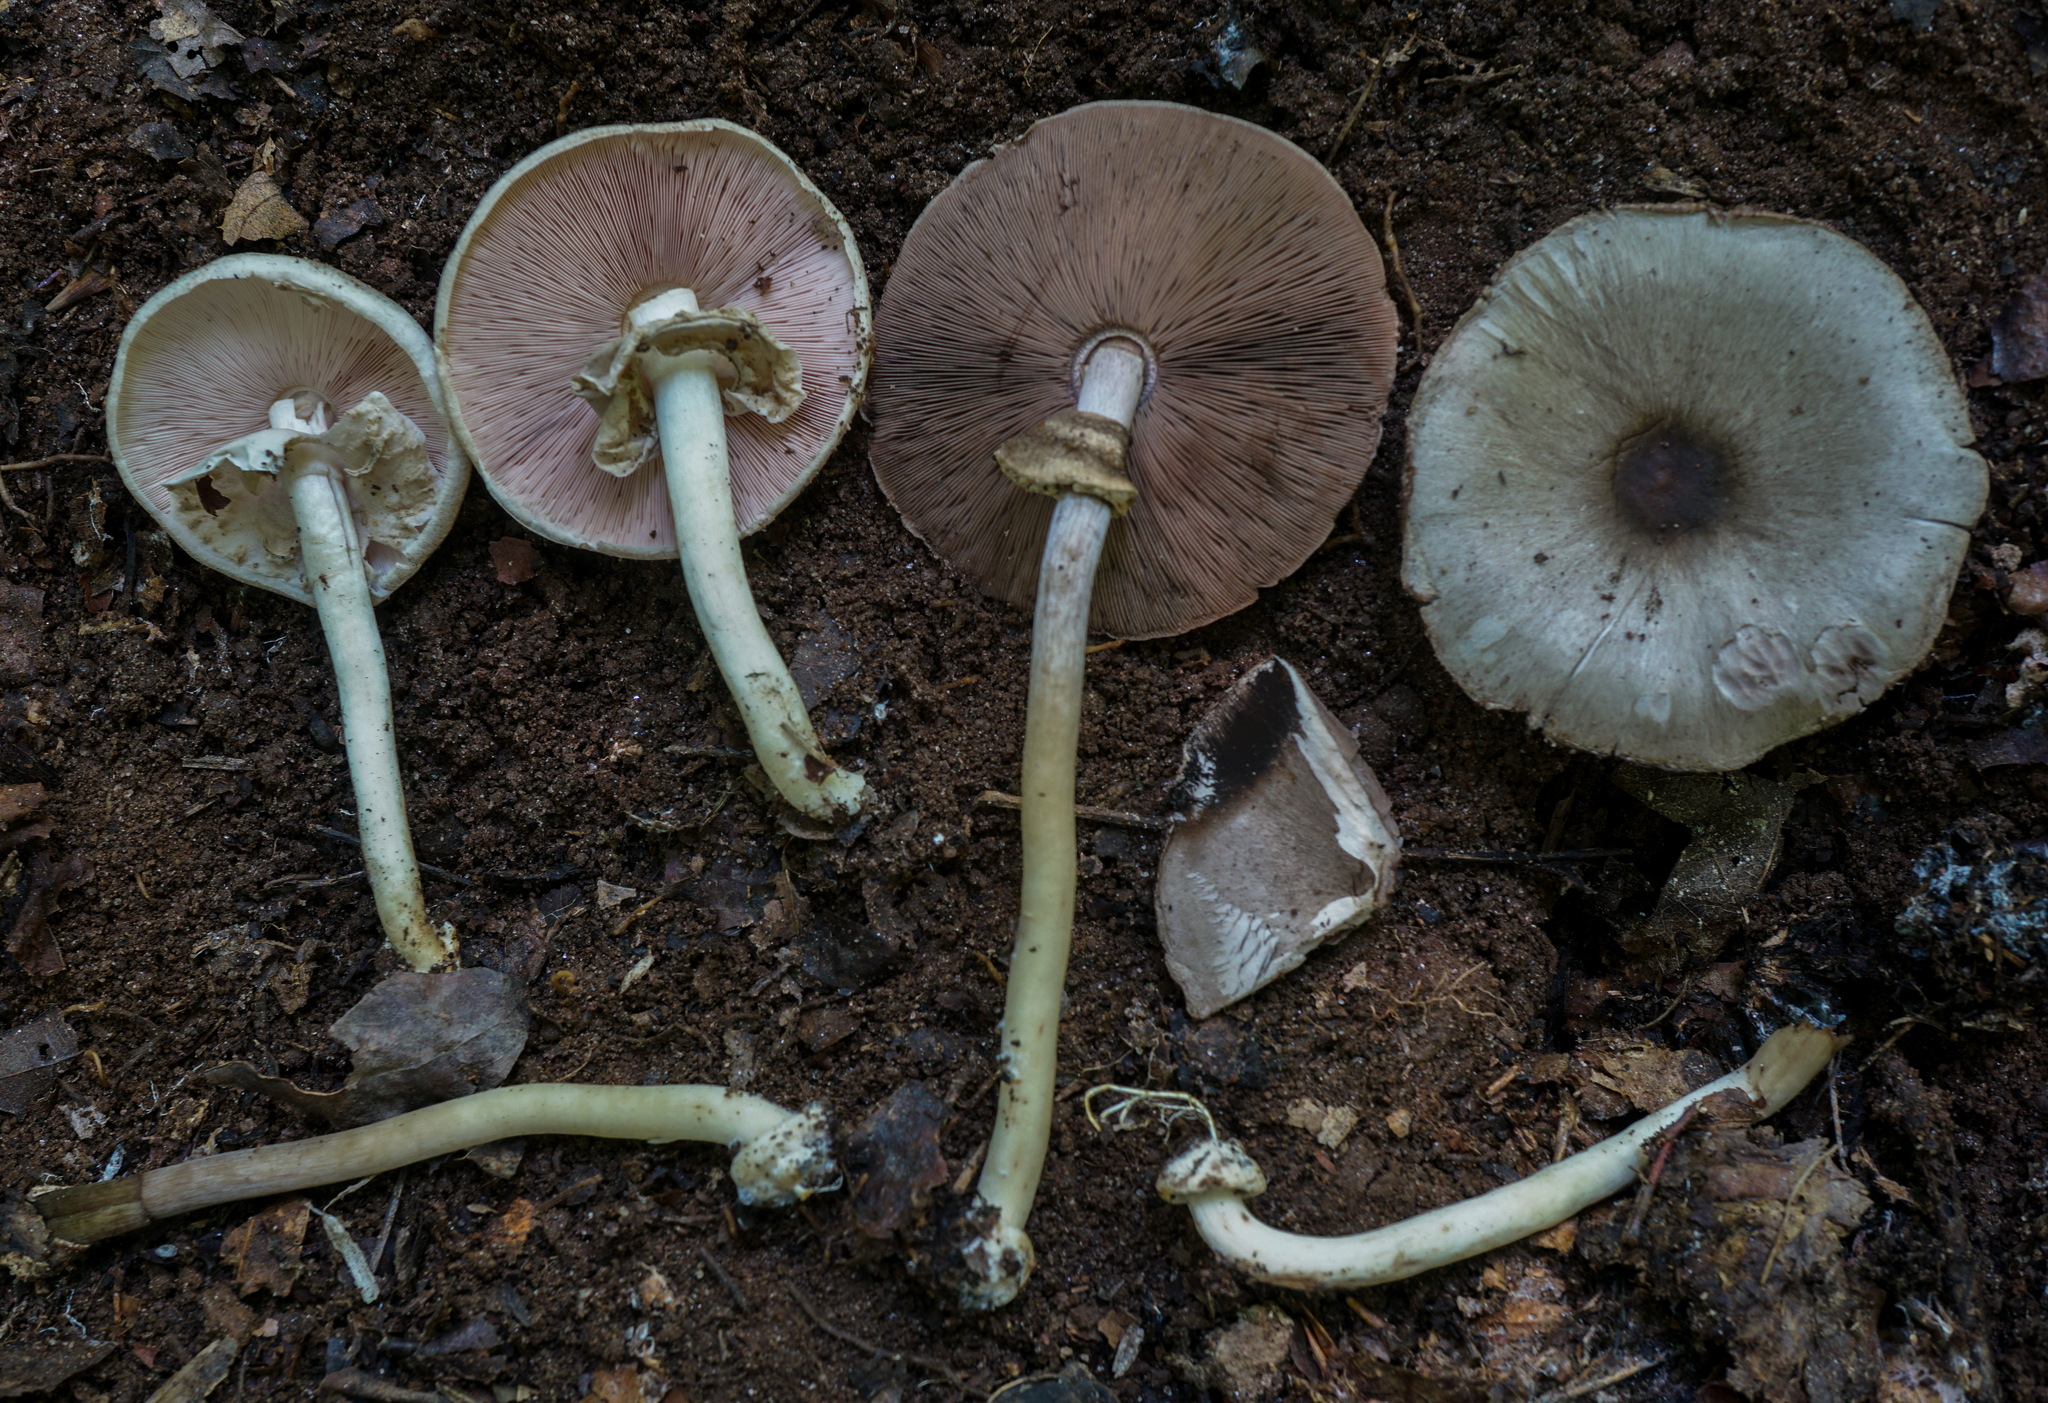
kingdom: Fungi
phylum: Basidiomycota
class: Agaricomycetes
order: Agaricales
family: Agaricaceae
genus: Agaricus
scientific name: Agaricus pocillator
